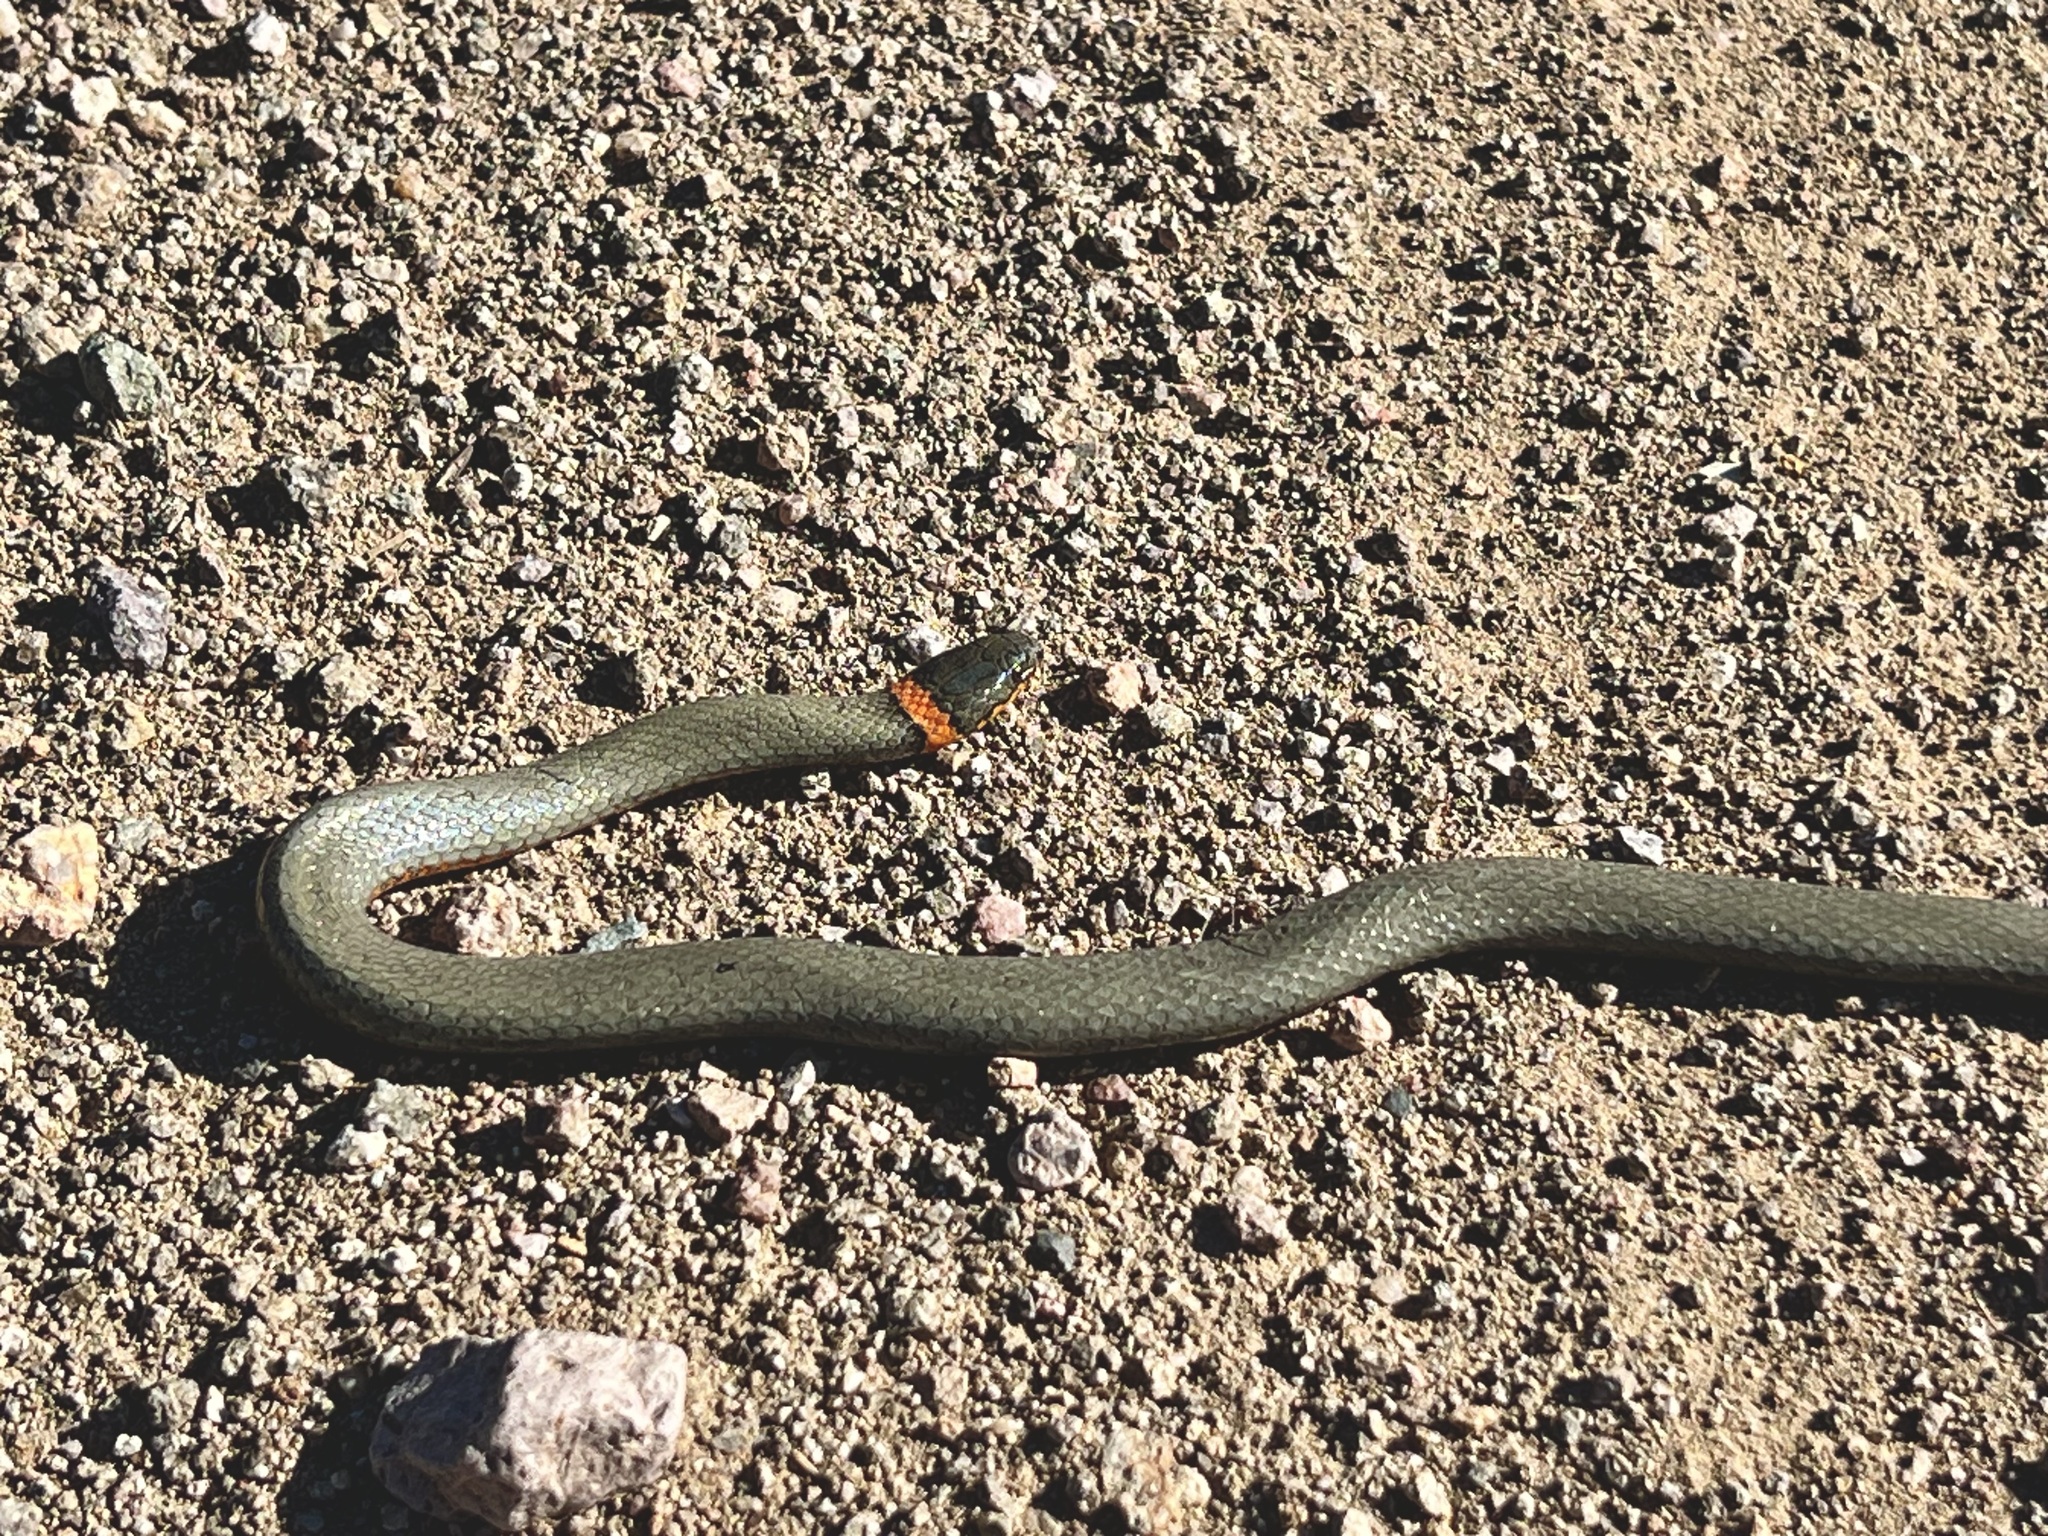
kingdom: Animalia
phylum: Chordata
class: Squamata
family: Colubridae
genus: Diadophis
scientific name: Diadophis punctatus
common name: Ringneck snake
